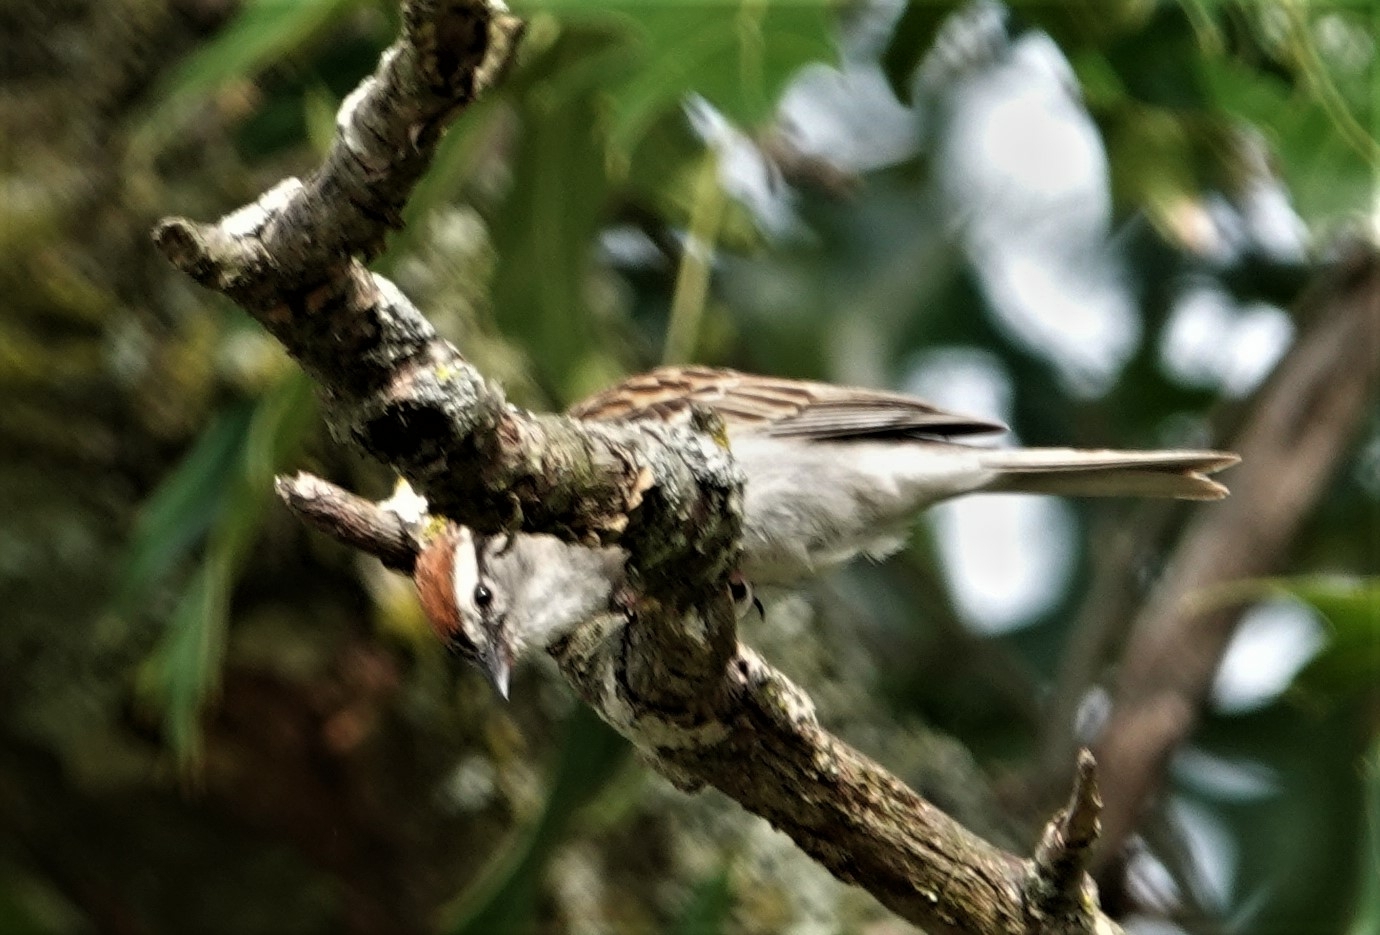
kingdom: Animalia
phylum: Chordata
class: Aves
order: Passeriformes
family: Passerellidae
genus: Spizella
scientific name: Spizella passerina
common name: Chipping sparrow
